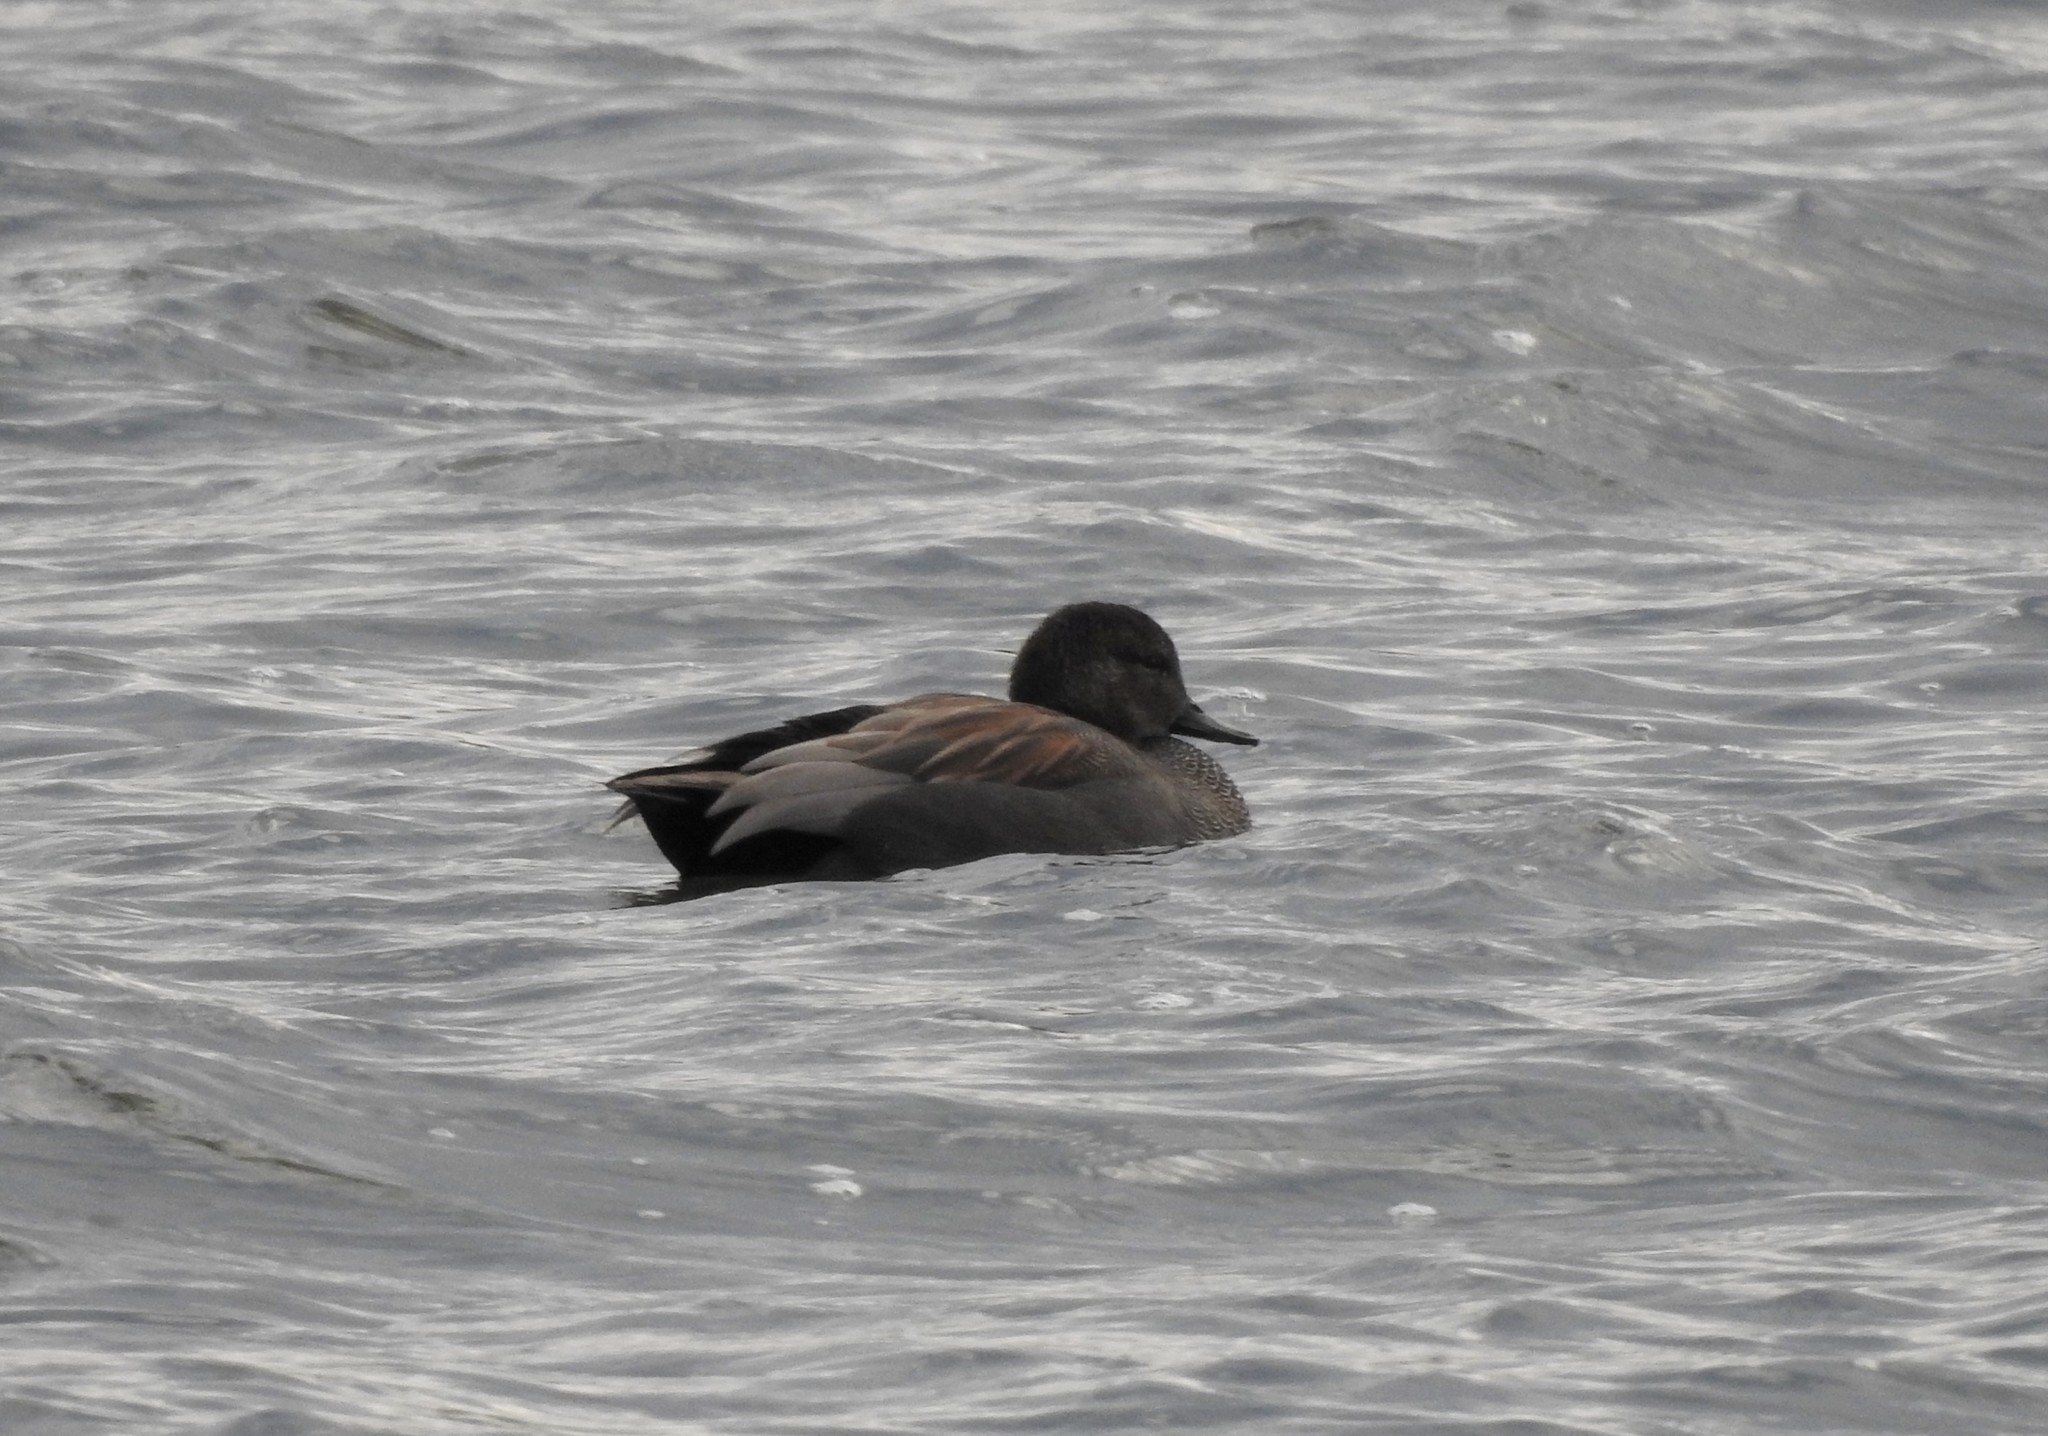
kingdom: Animalia
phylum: Chordata
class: Aves
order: Anseriformes
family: Anatidae
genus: Mareca
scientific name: Mareca strepera
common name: Gadwall
